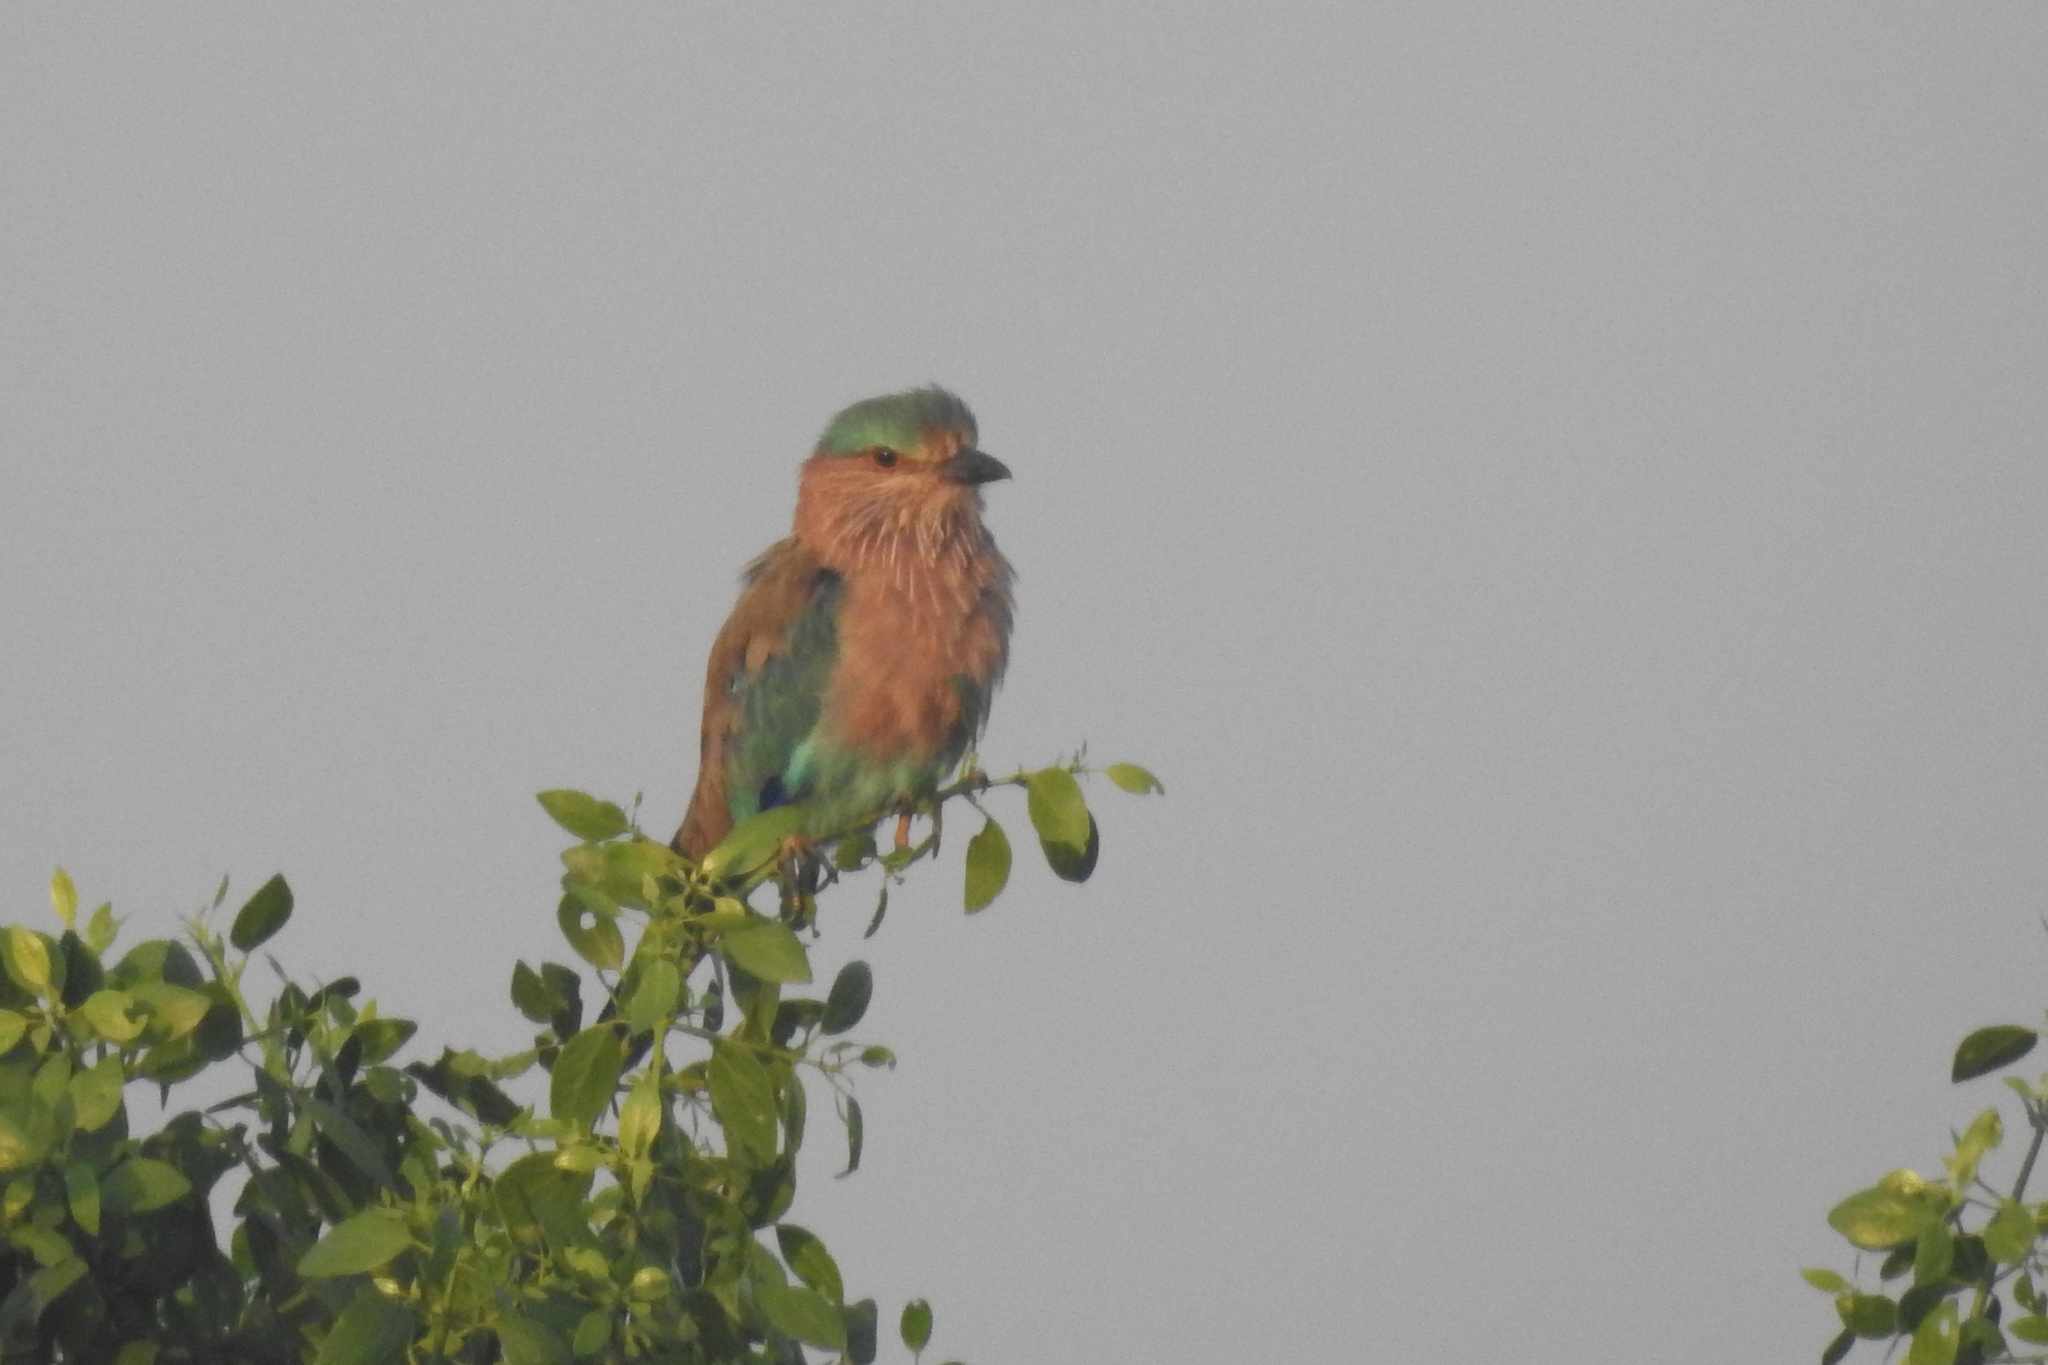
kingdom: Animalia
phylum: Chordata
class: Aves
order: Coraciiformes
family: Coraciidae
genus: Coracias
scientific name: Coracias benghalensis
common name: Indian roller
